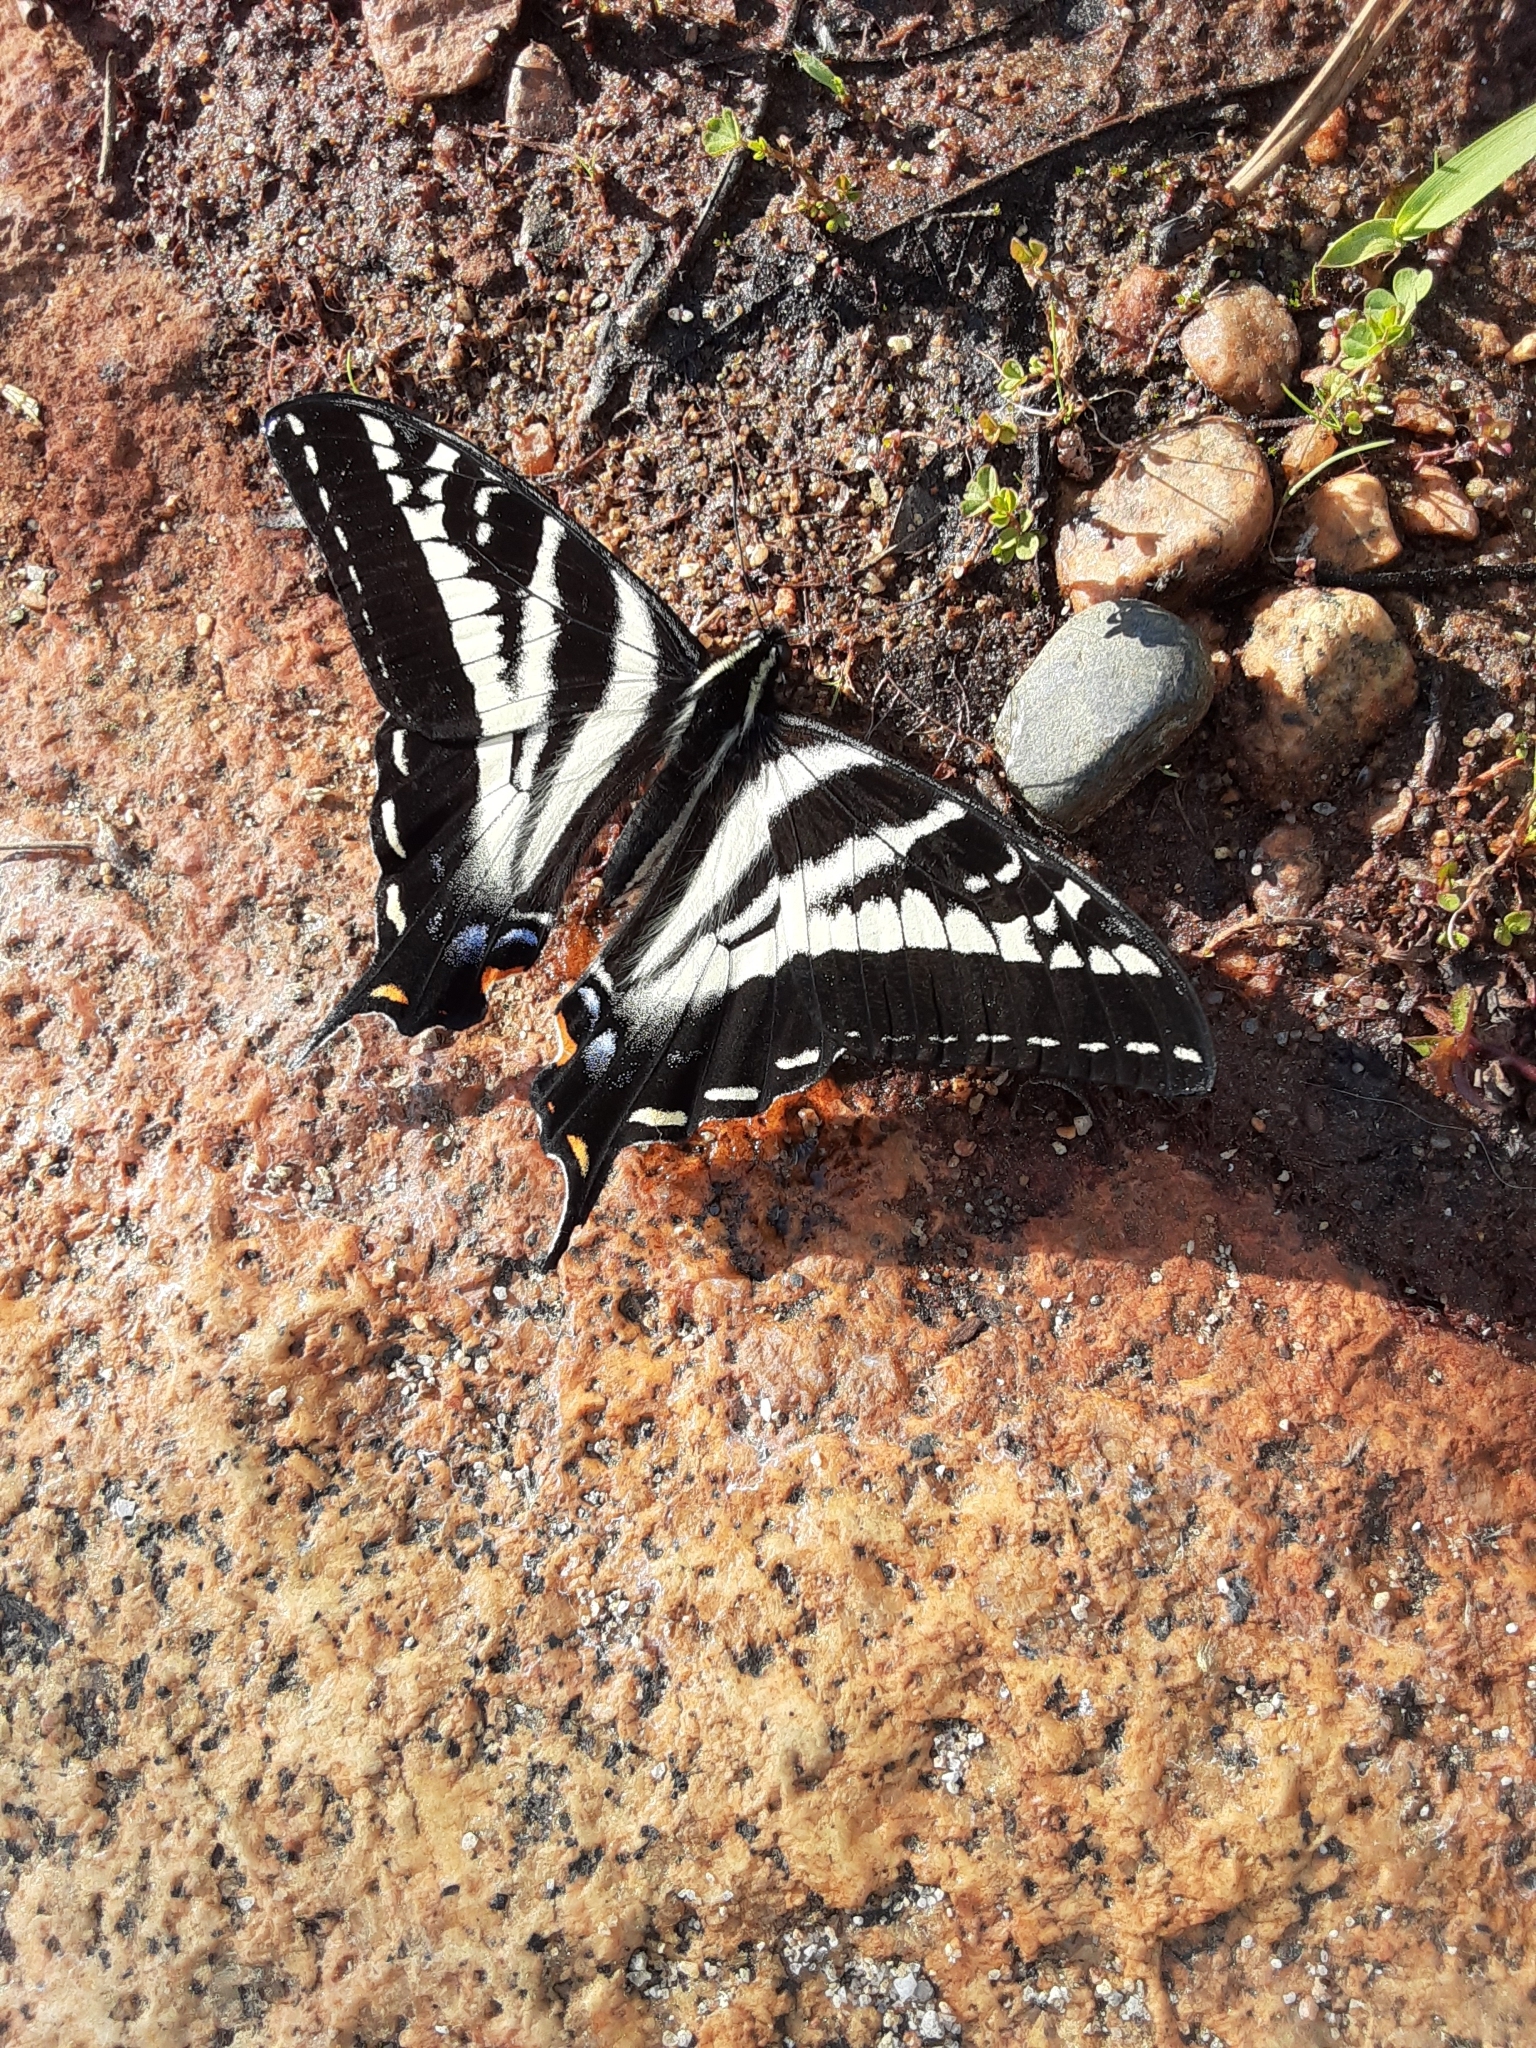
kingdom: Animalia
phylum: Arthropoda
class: Insecta
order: Lepidoptera
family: Papilionidae
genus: Papilio
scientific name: Papilio eurymedon
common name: Pale tiger swallowtail
